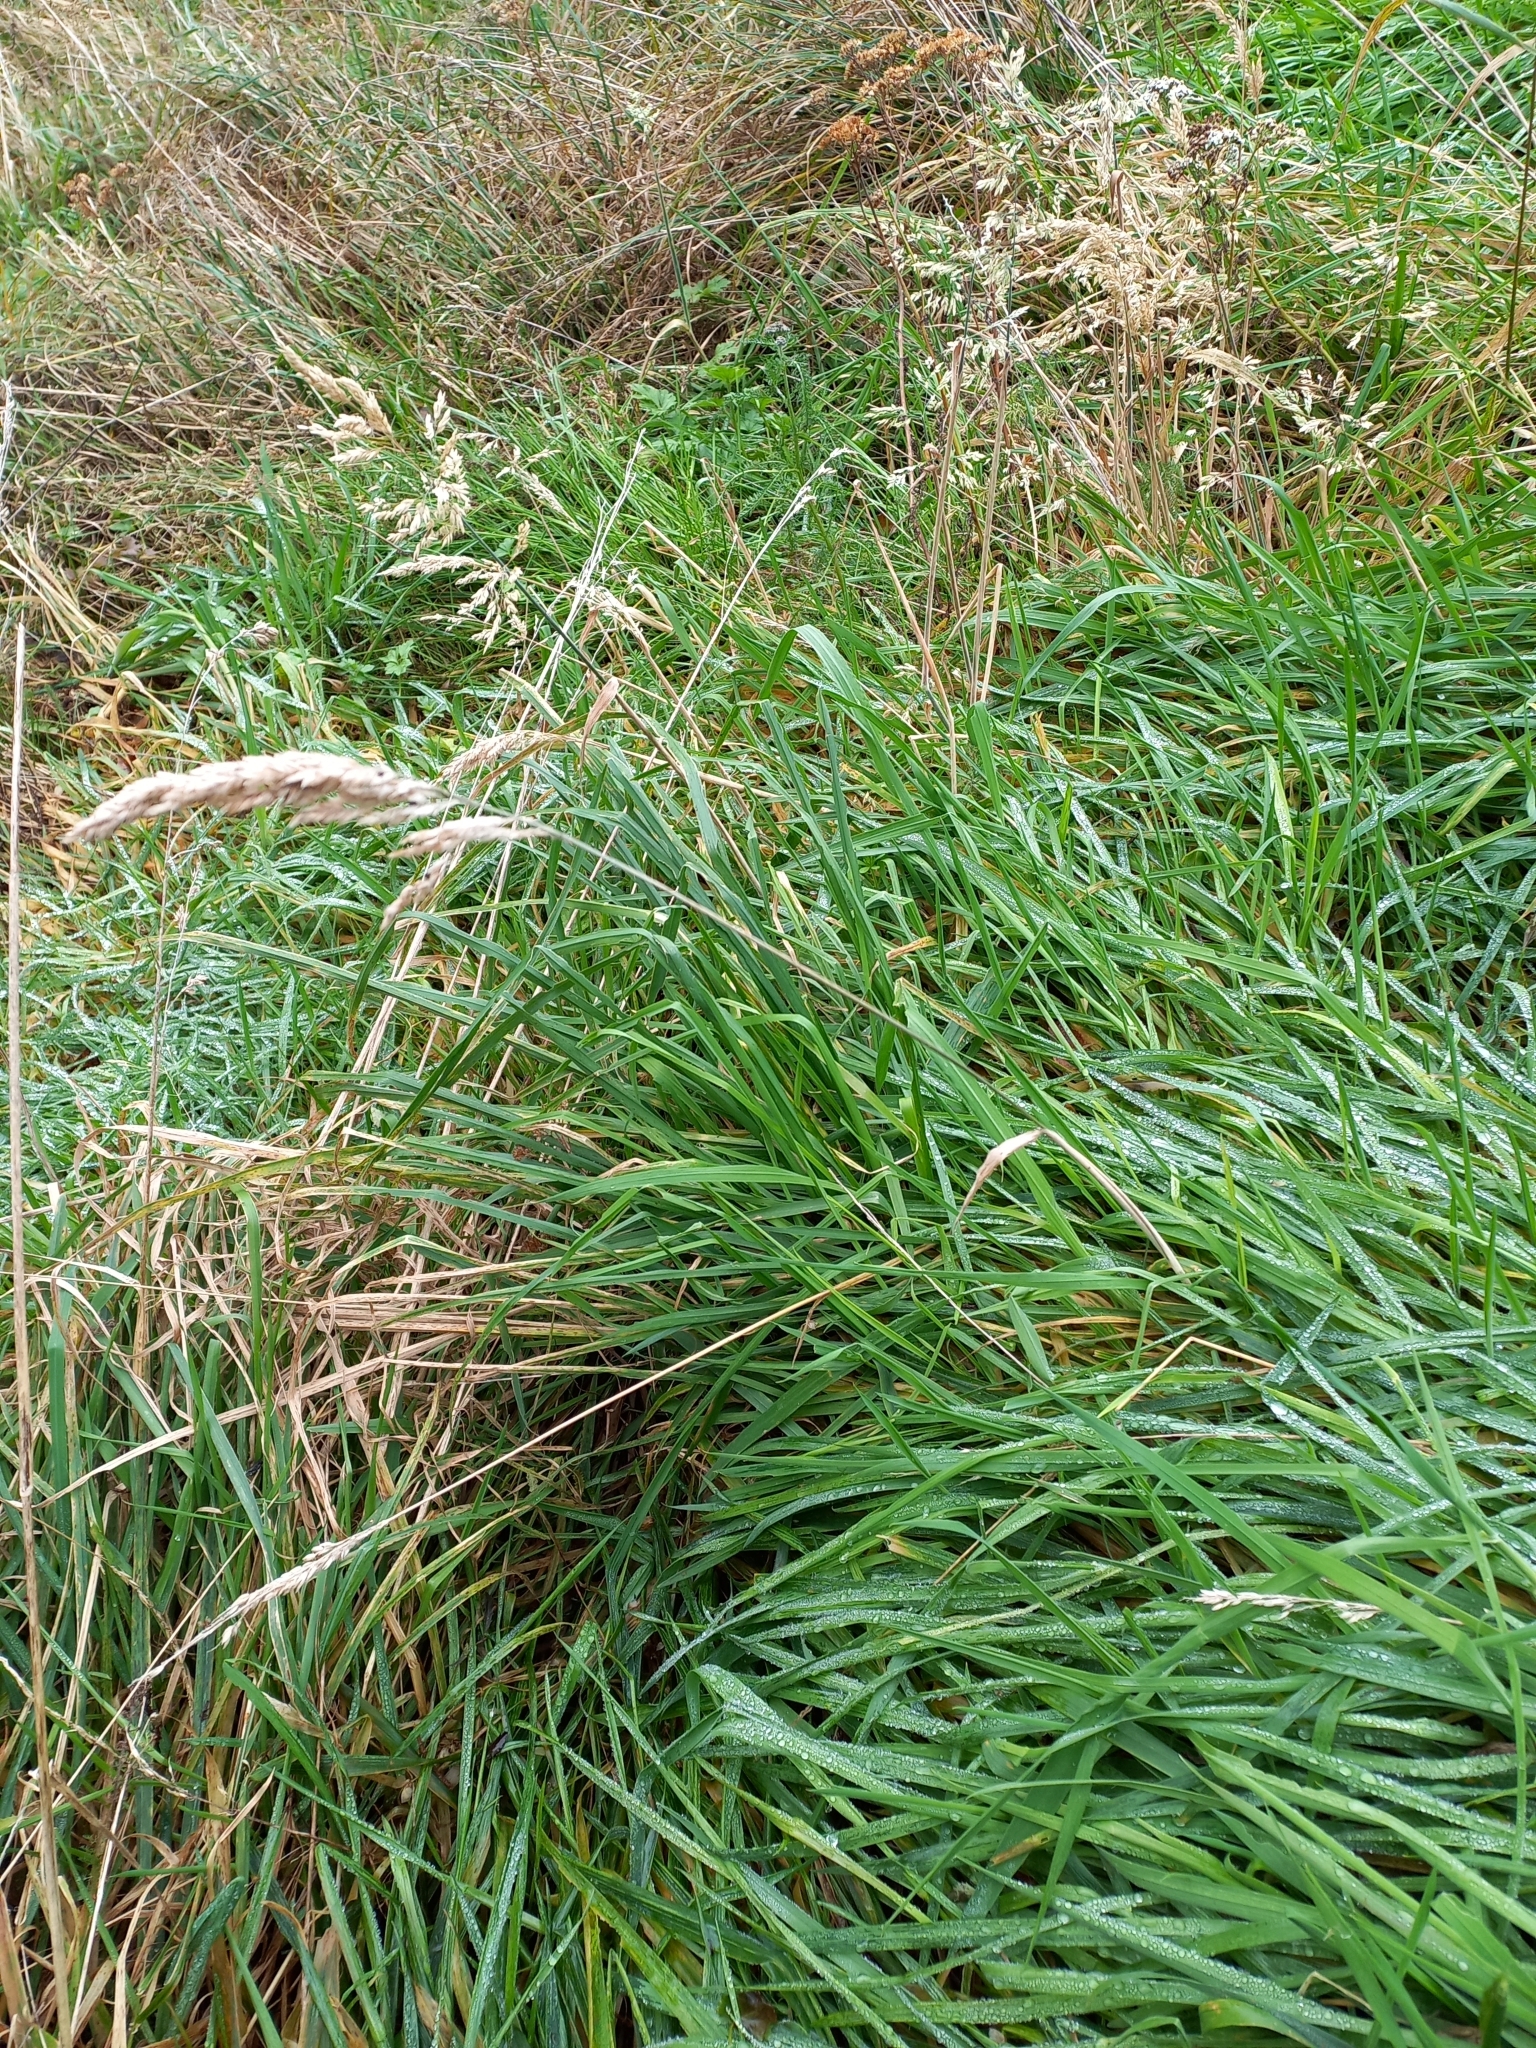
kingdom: Plantae
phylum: Tracheophyta
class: Liliopsida
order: Poales
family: Poaceae
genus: Holcus
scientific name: Holcus lanatus
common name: Yorkshire-fog
